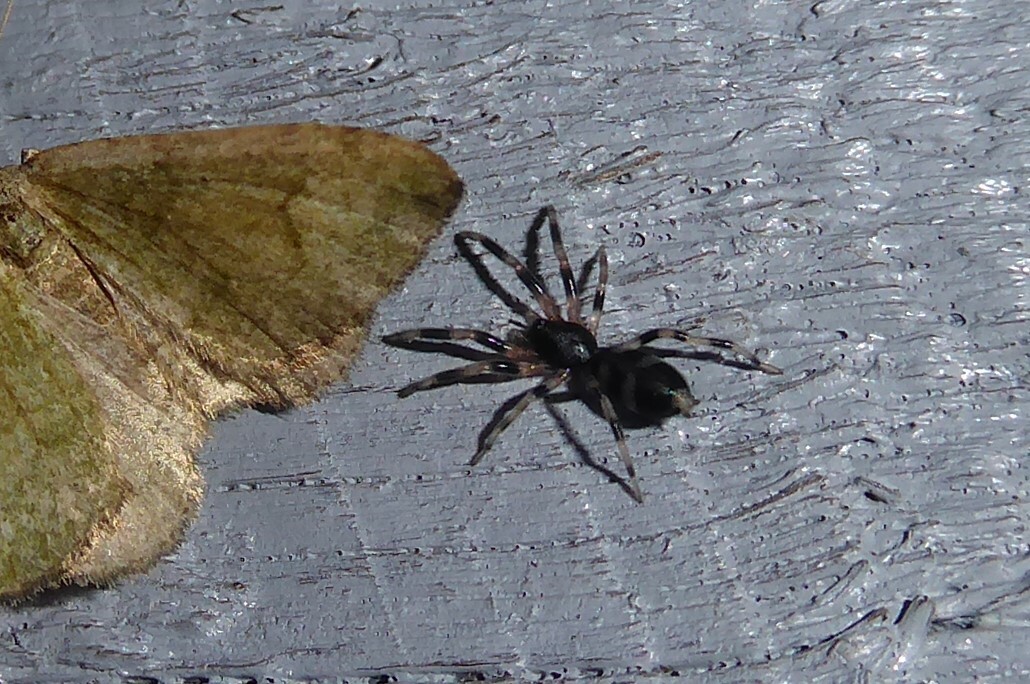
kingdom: Animalia
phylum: Arthropoda
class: Arachnida
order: Araneae
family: Lamponidae
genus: Lampona
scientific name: Lampona cylindrata
